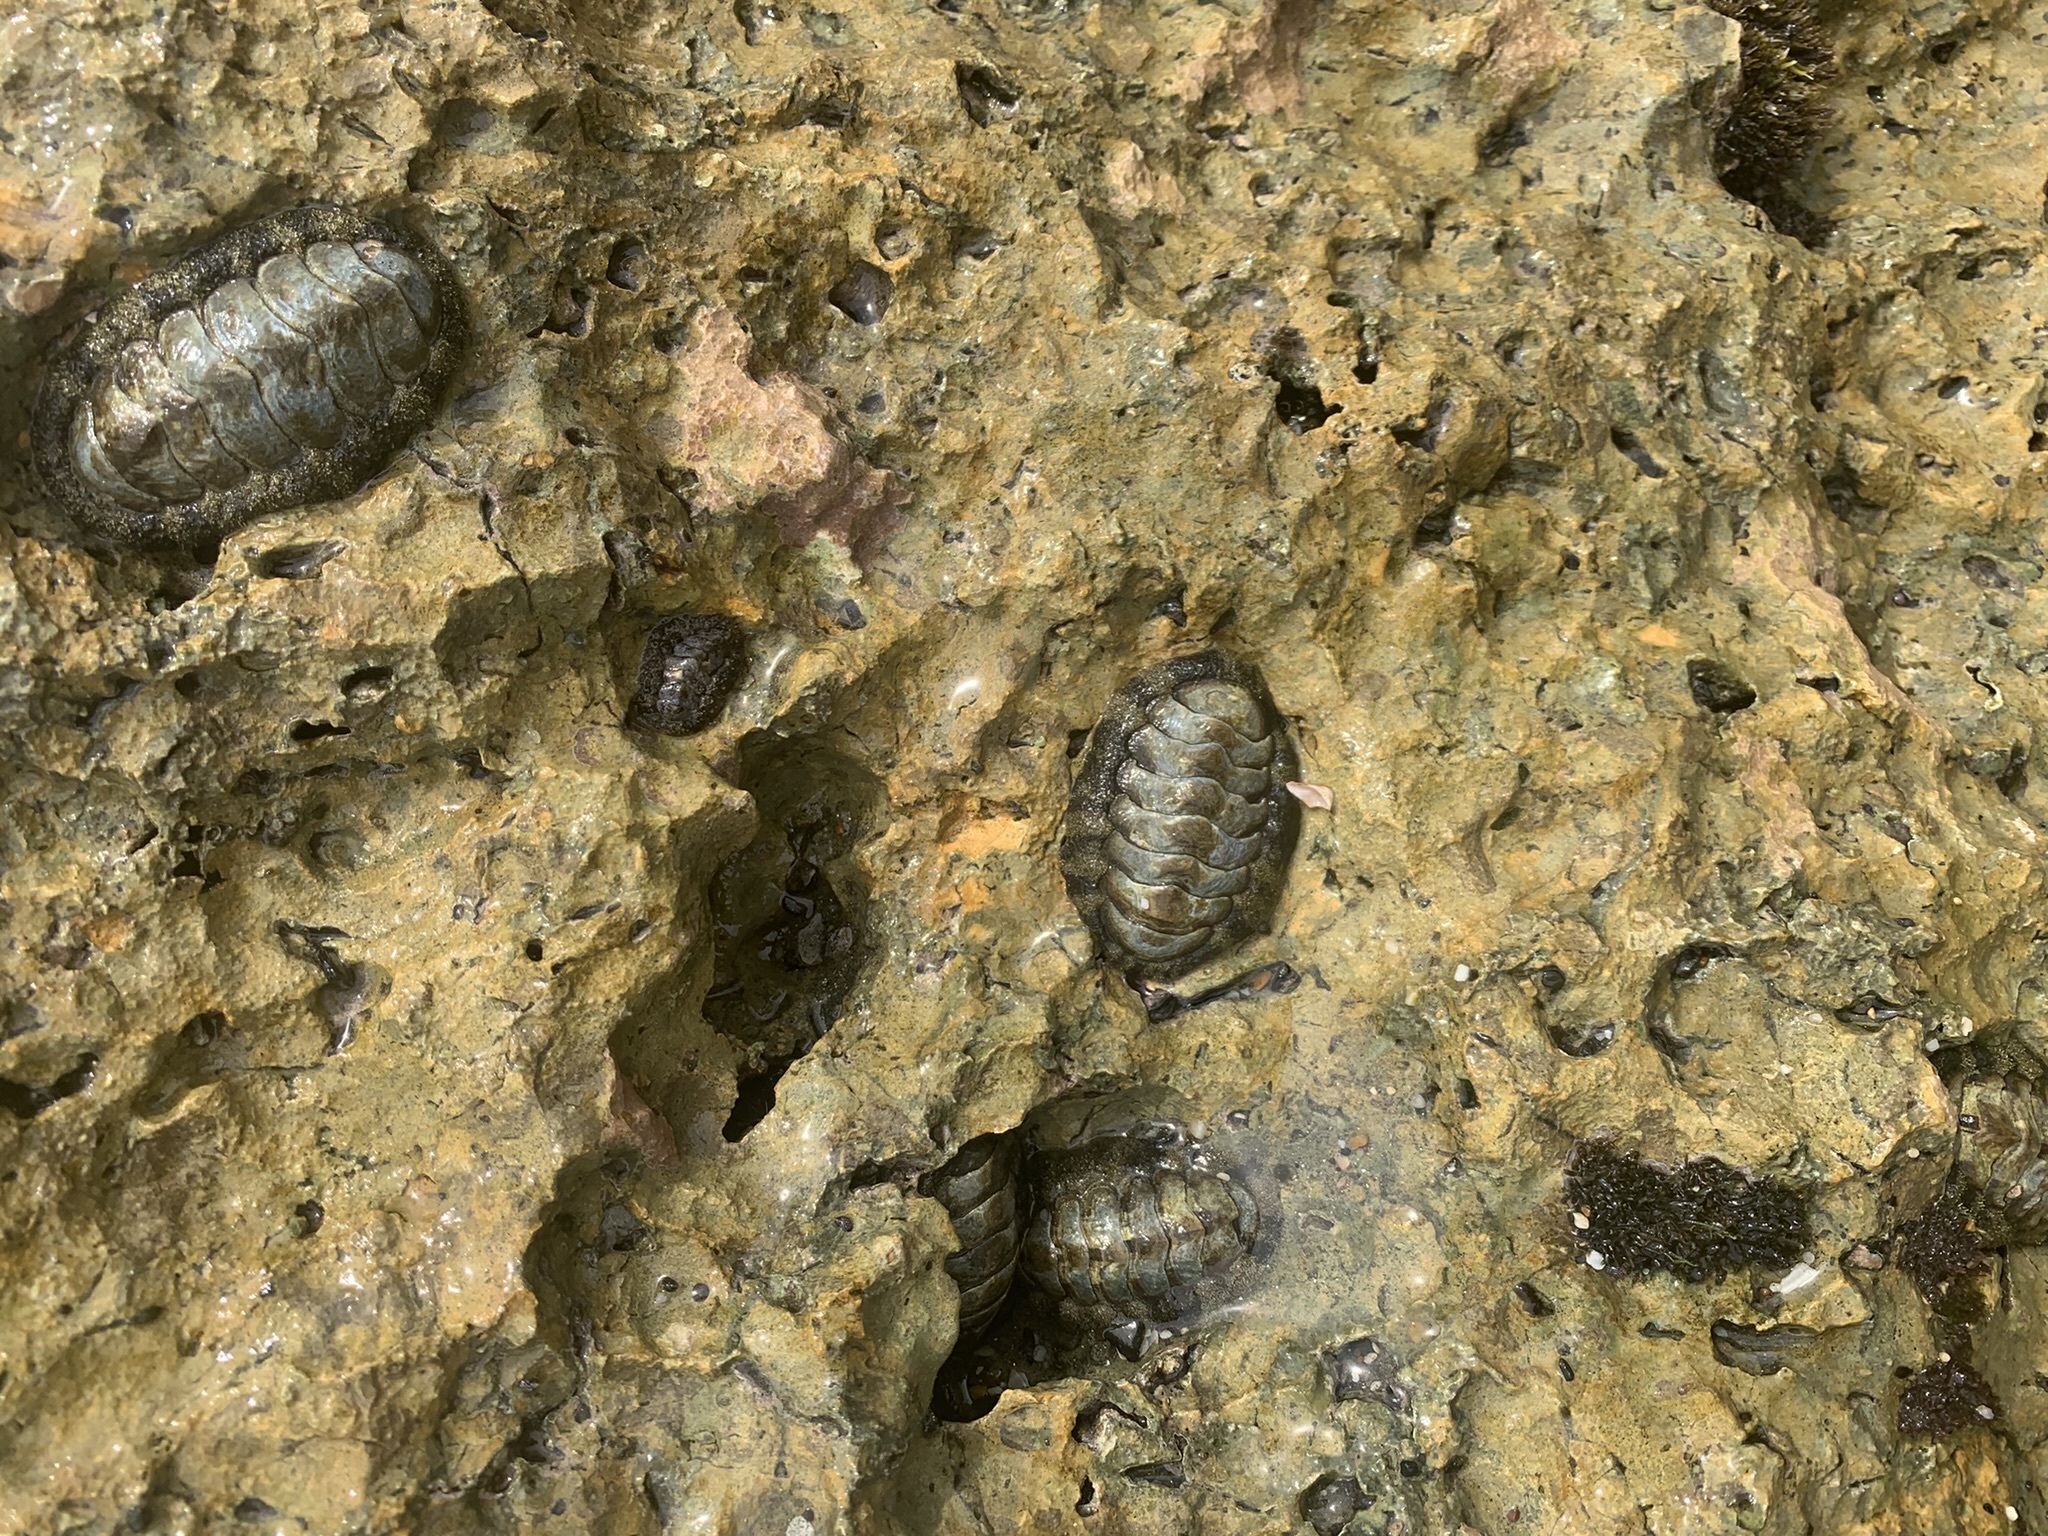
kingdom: Animalia
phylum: Mollusca
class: Polyplacophora
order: Chitonida
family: Chitonidae
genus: Acanthopleura
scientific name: Acanthopleura granulata
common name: West indian fuzzy chiton
